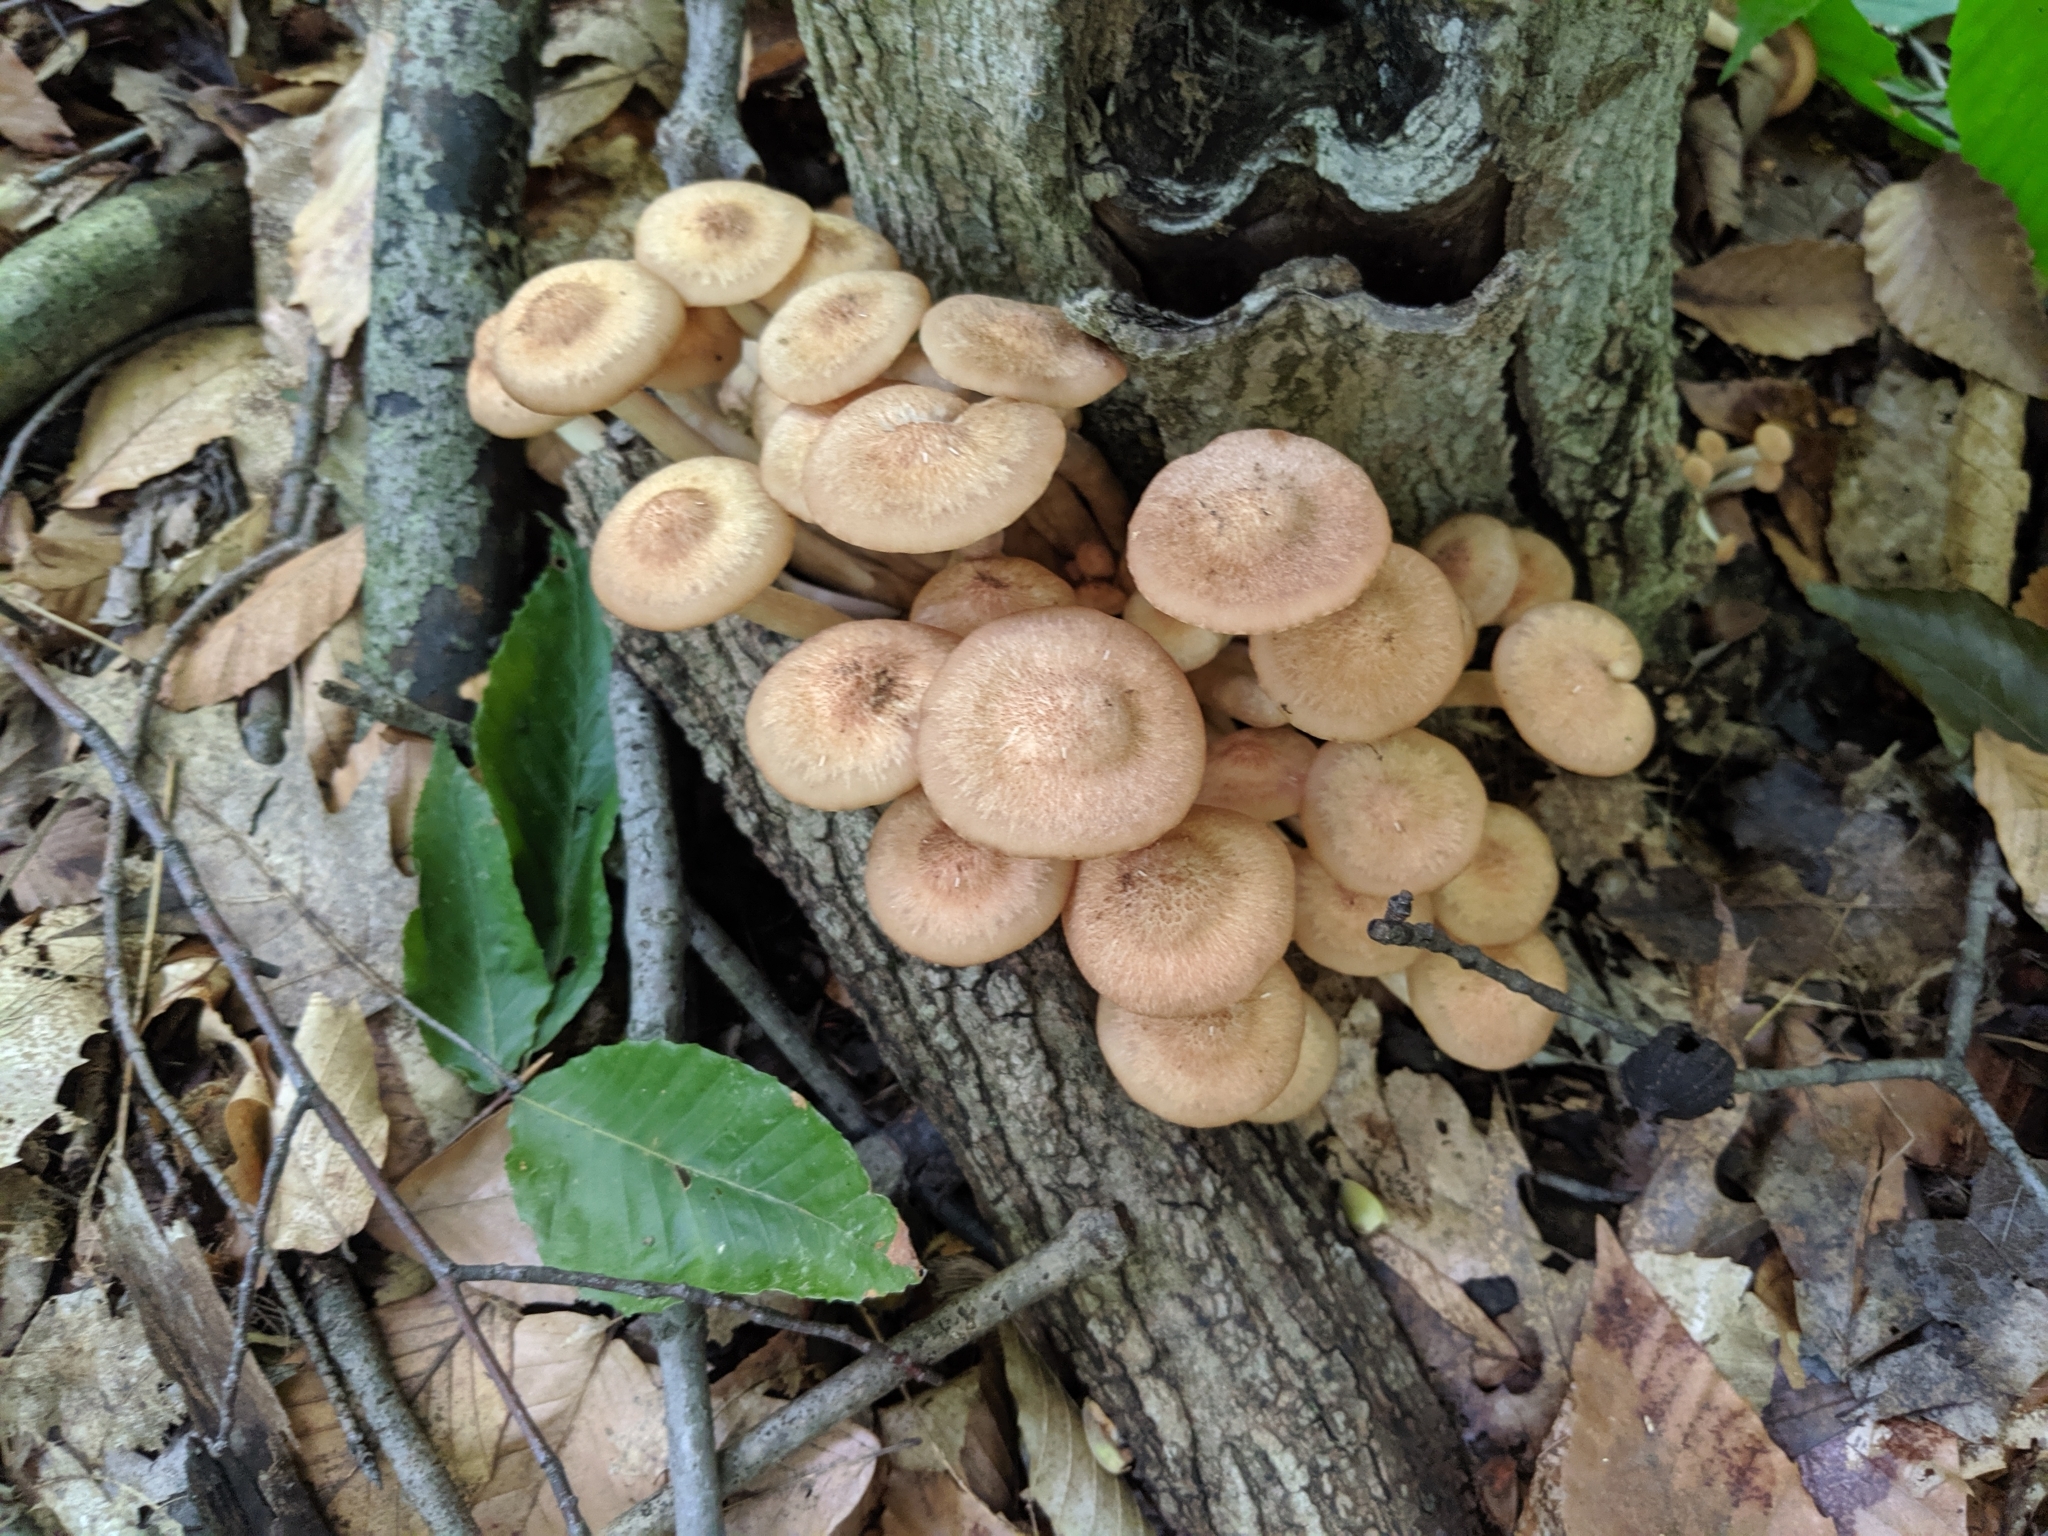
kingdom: Fungi
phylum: Basidiomycota
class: Agaricomycetes
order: Agaricales
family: Physalacriaceae
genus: Desarmillaria
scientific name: Desarmillaria caespitosa
